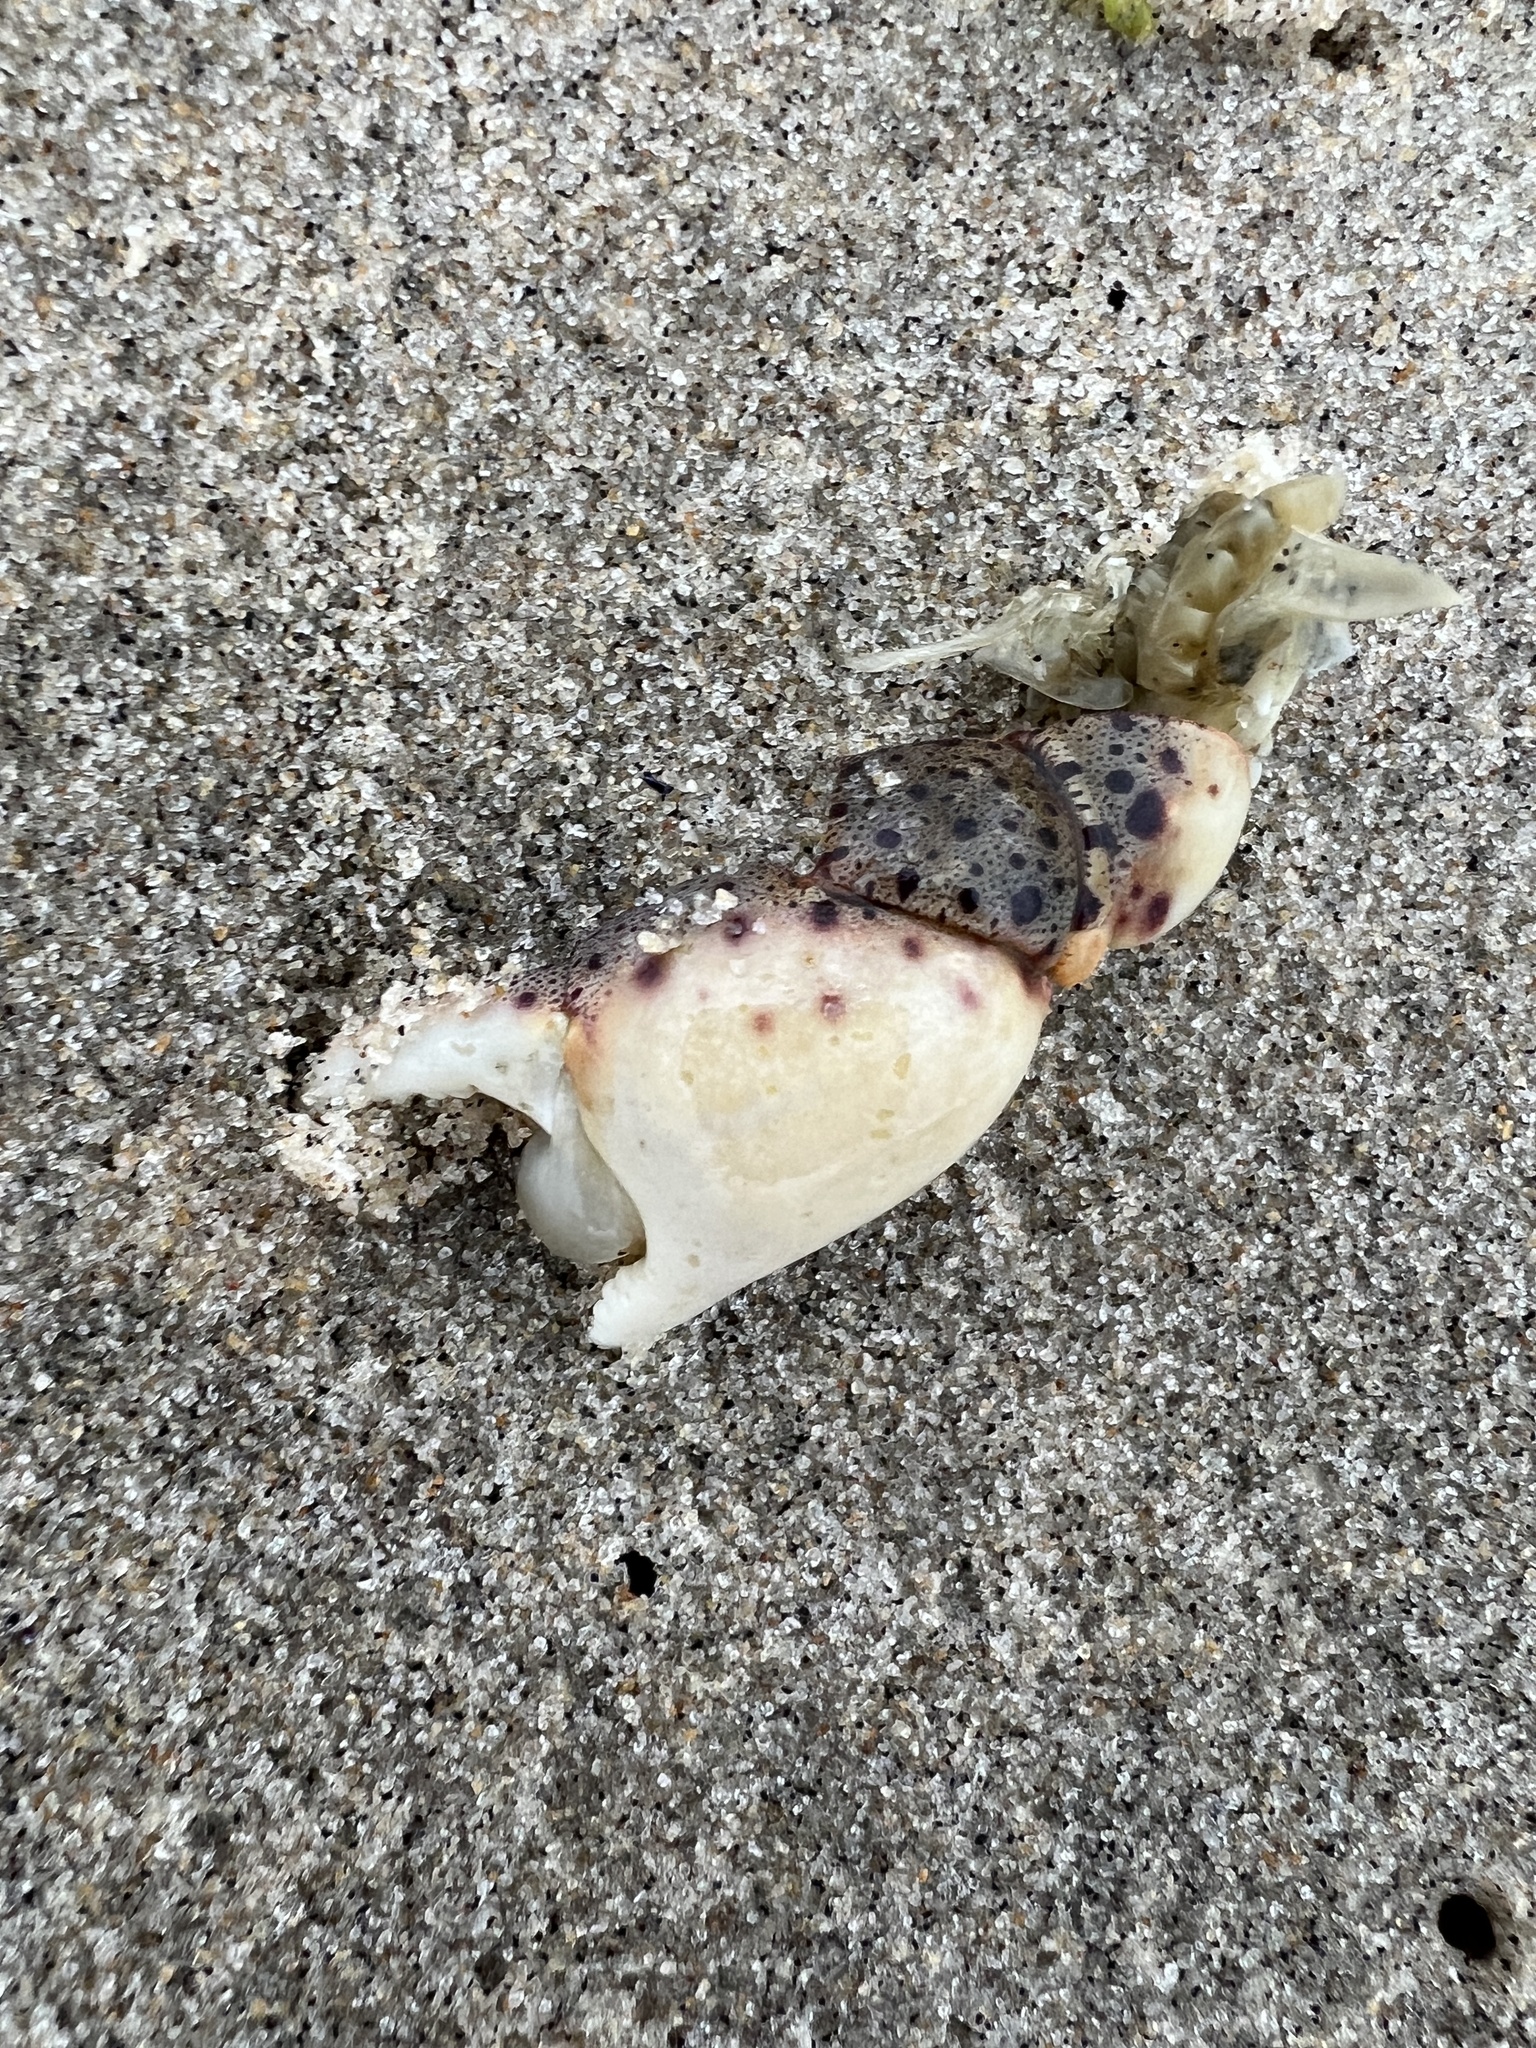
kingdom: Animalia
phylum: Arthropoda
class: Malacostraca
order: Decapoda
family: Varunidae
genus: Hemigrapsus
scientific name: Hemigrapsus sanguineus
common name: Asian shore crab
